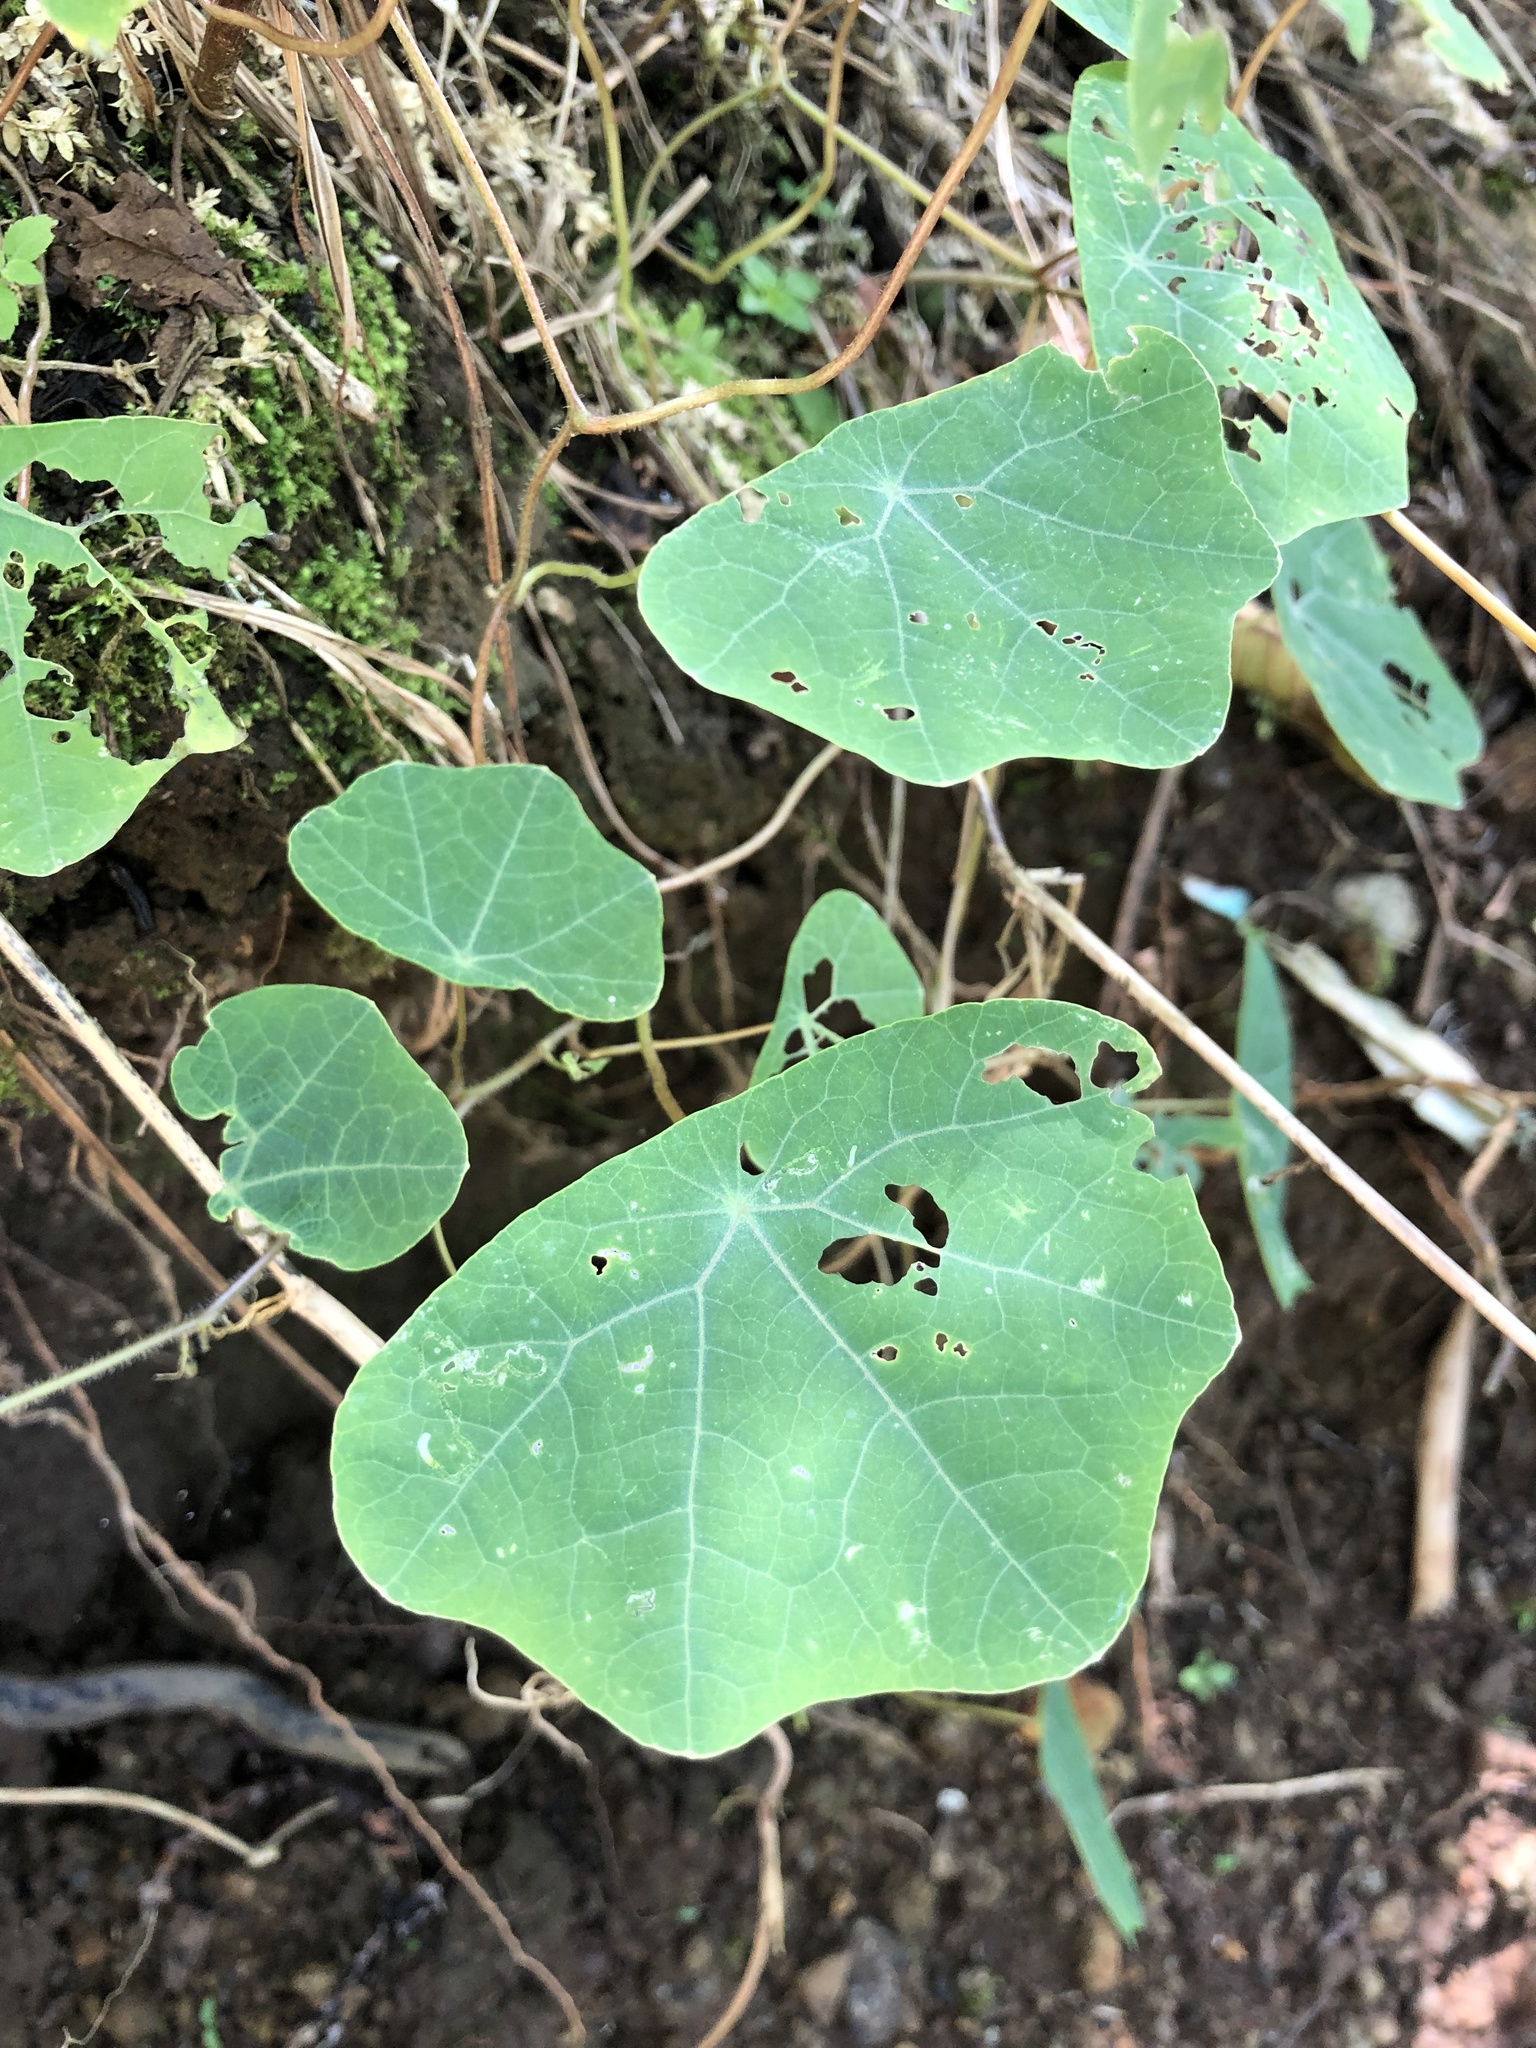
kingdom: Plantae
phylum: Tracheophyta
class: Magnoliopsida
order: Brassicales
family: Tropaeolaceae
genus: Tropaeolum
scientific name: Tropaeolum pendulum
